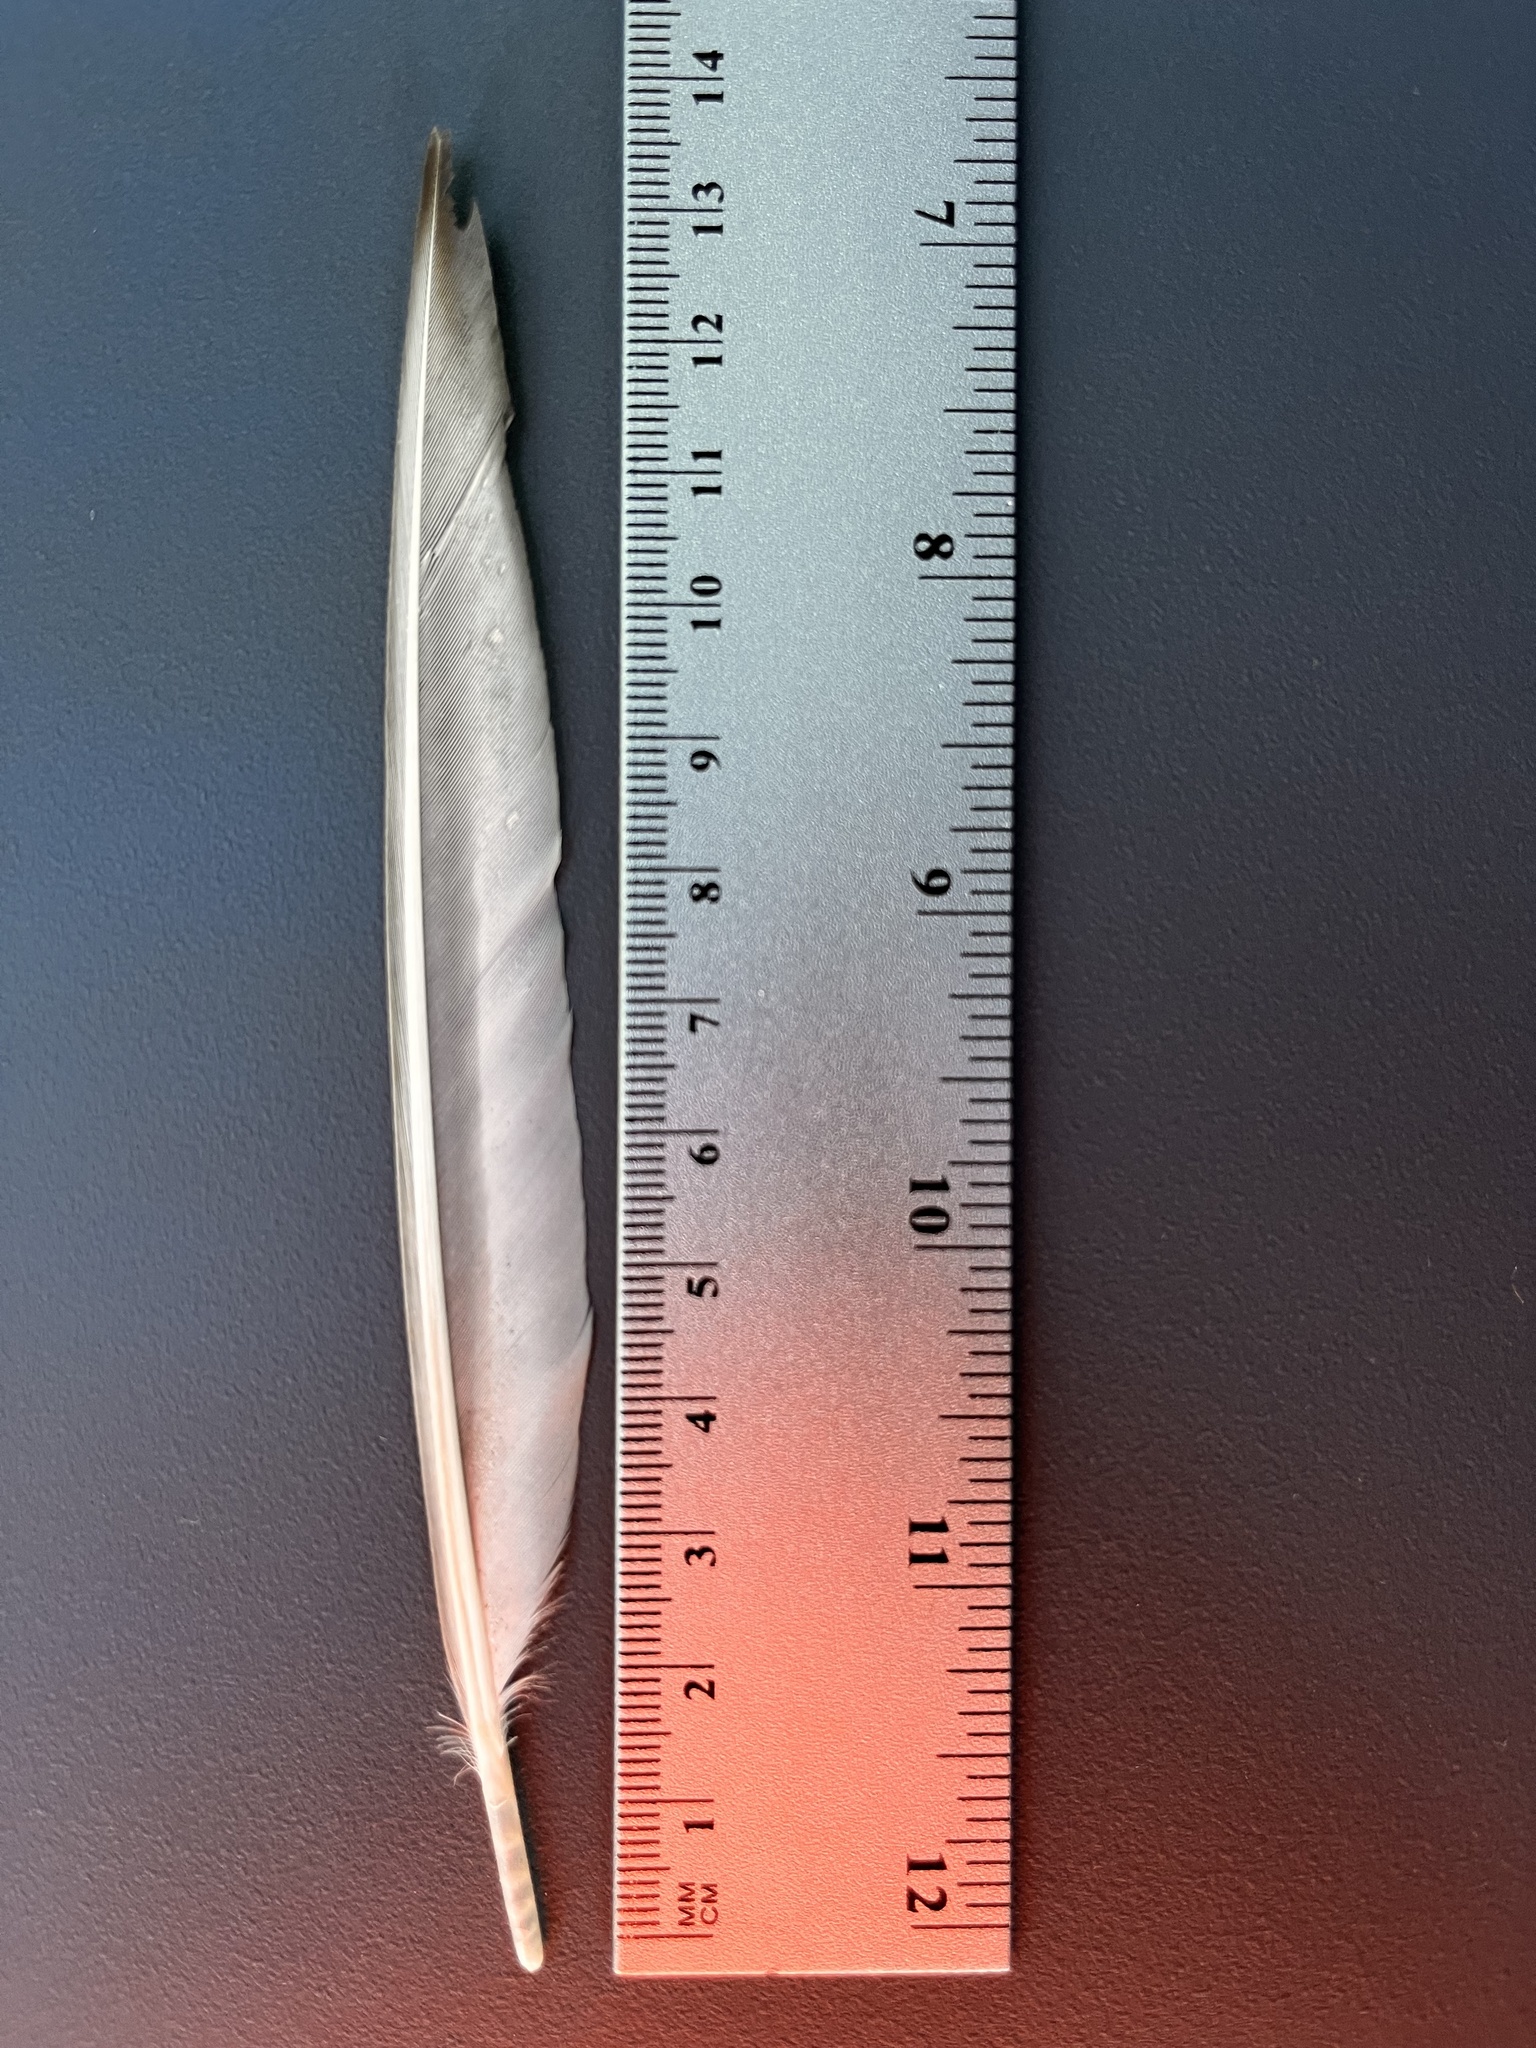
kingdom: Animalia
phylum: Chordata
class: Aves
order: Charadriiformes
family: Charadriidae
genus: Charadrius
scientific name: Charadrius vociferus
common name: Killdeer
